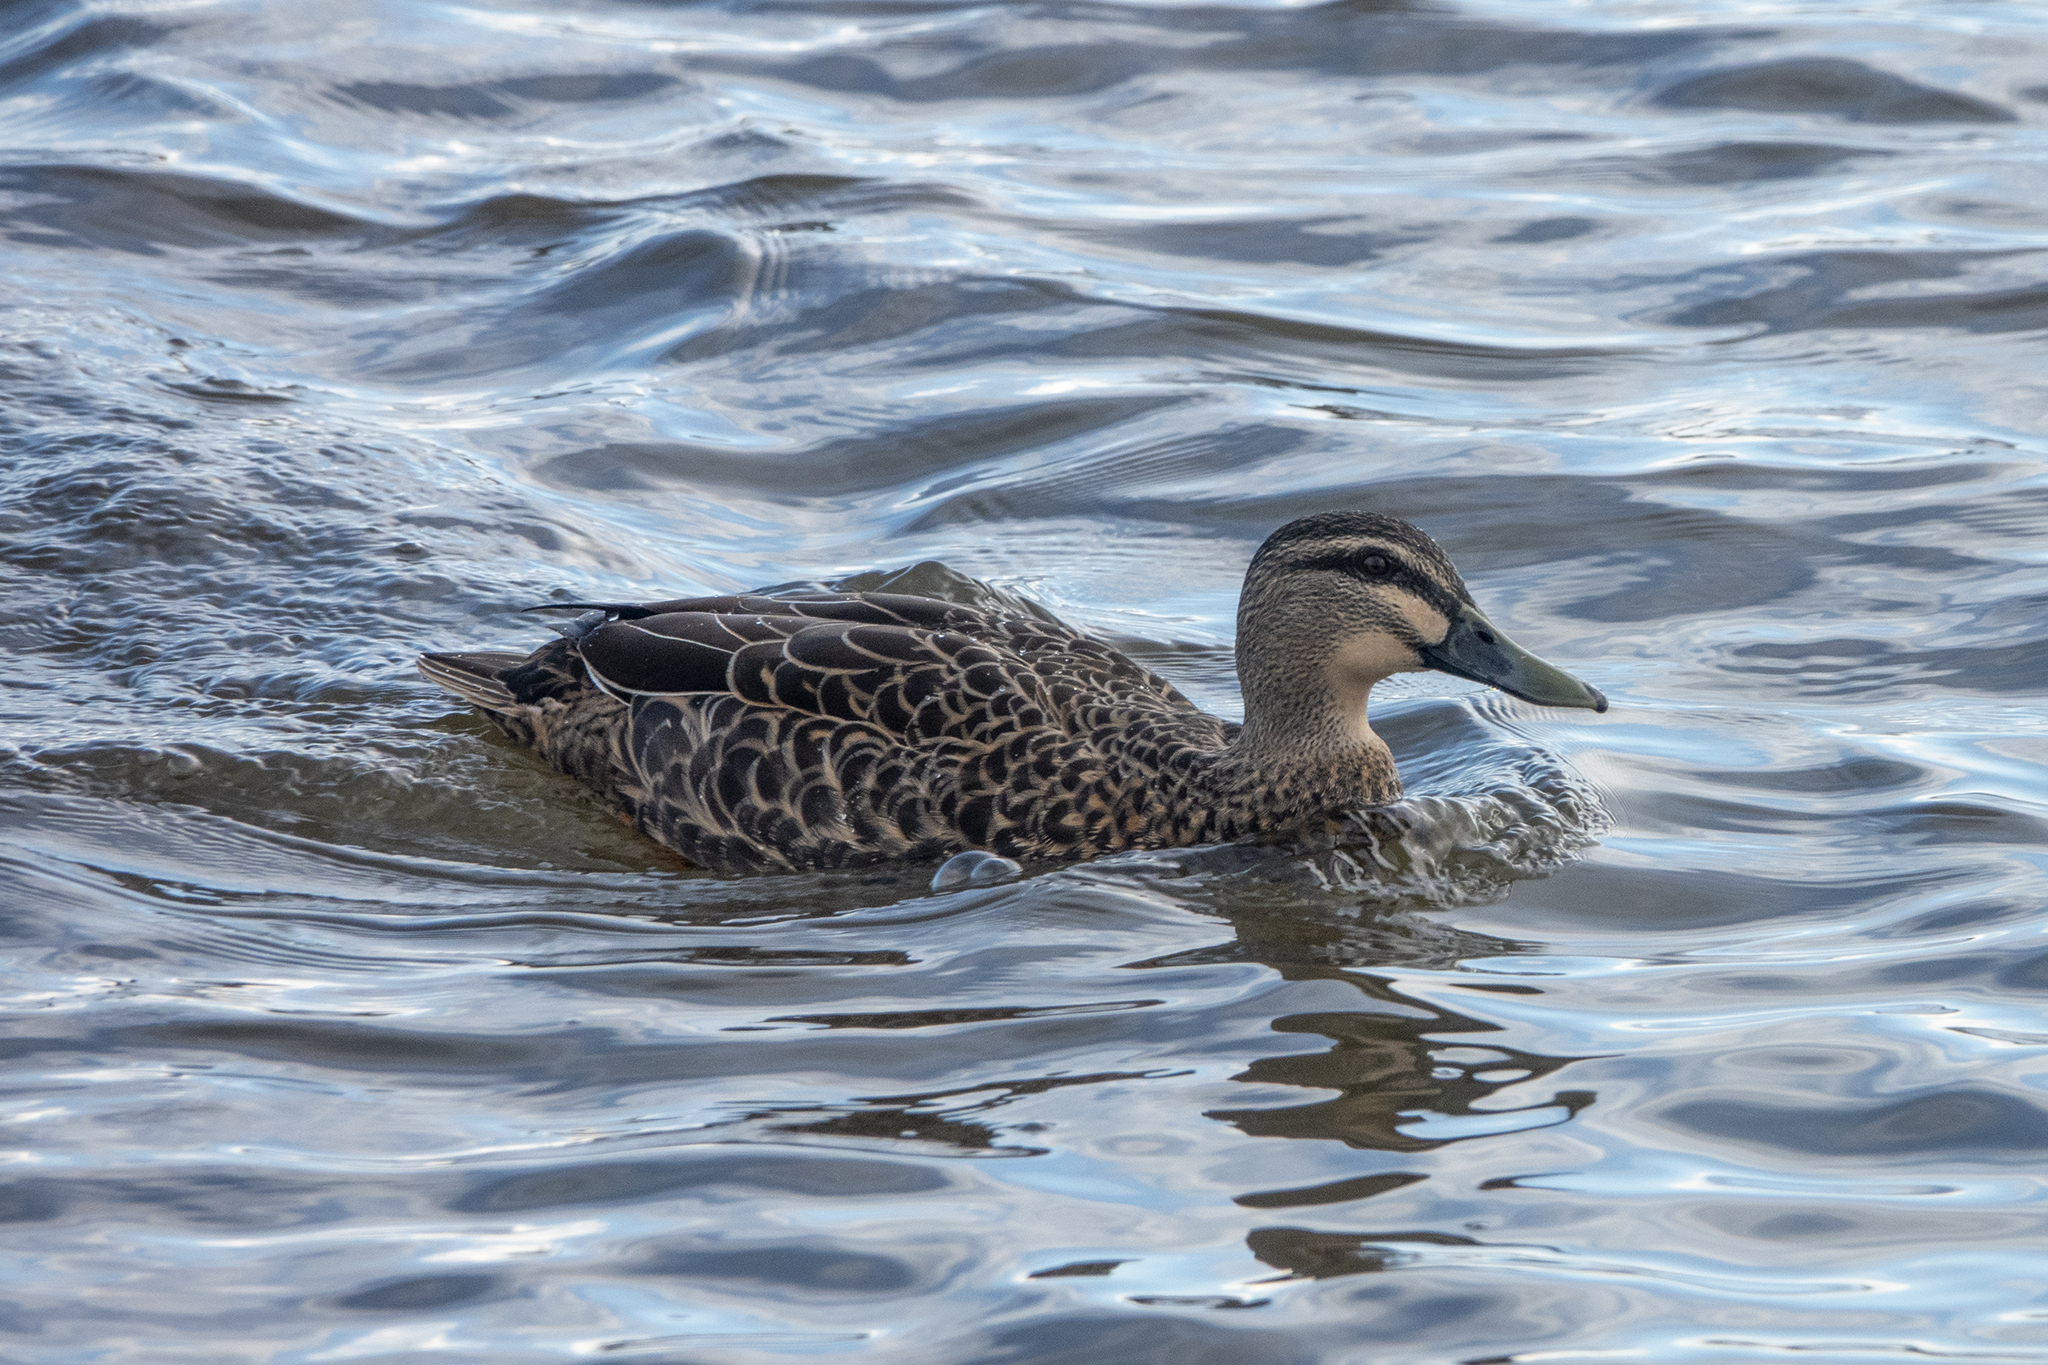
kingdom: Animalia
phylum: Chordata
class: Aves
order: Anseriformes
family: Anatidae
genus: Anas
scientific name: Anas
